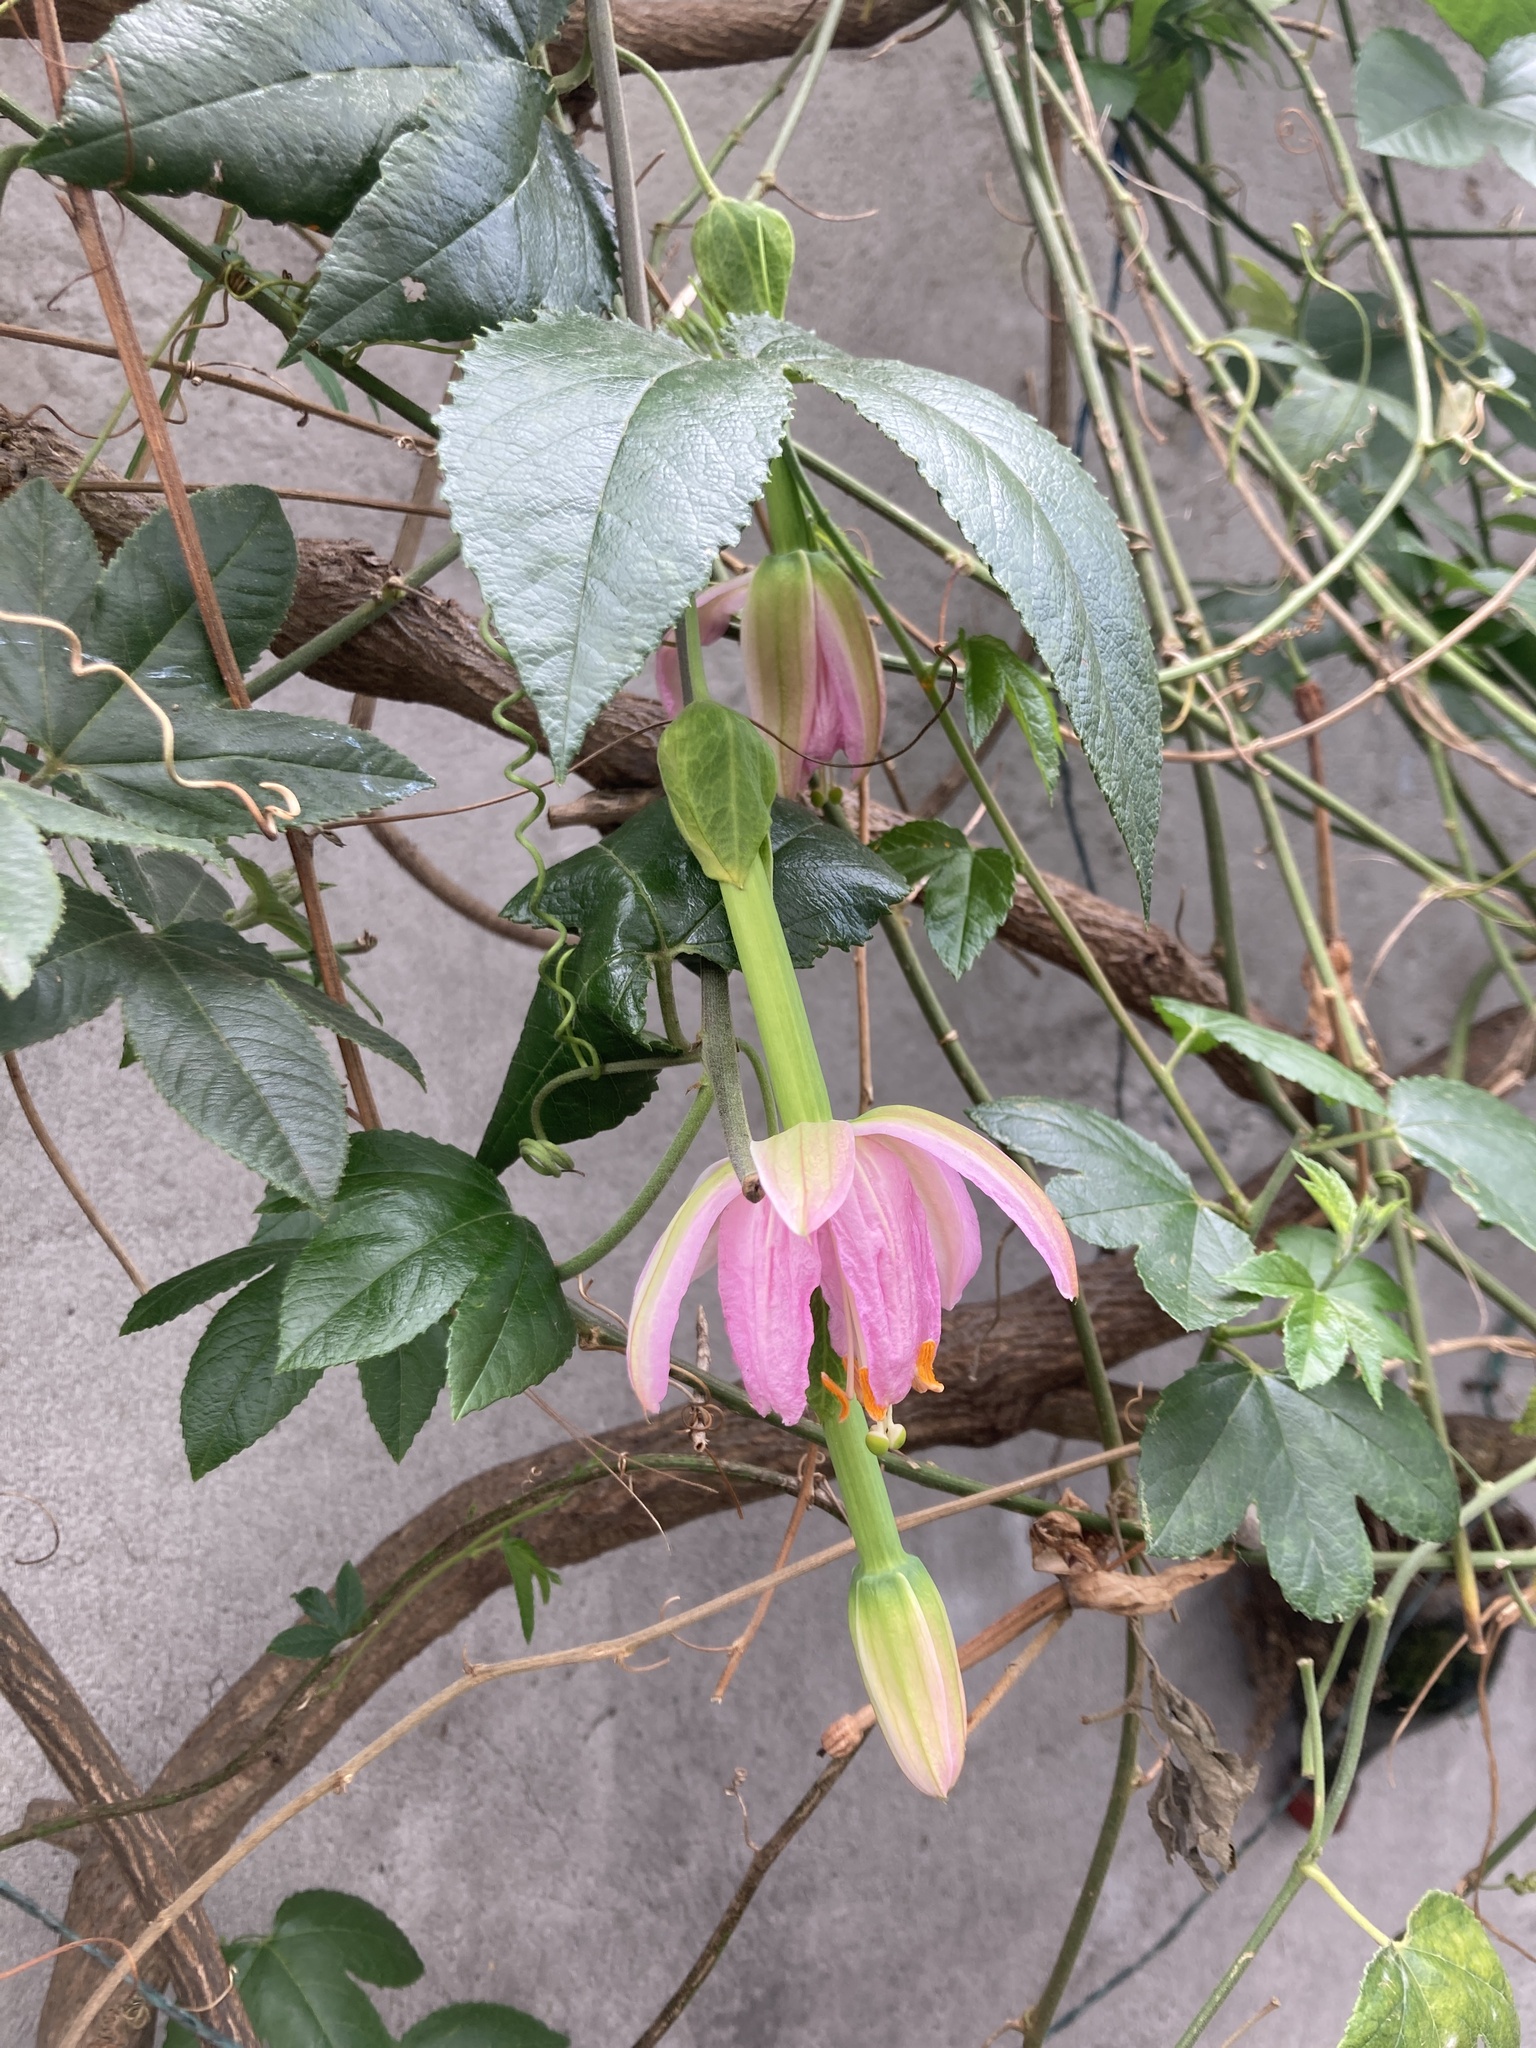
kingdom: Plantae
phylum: Tracheophyta
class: Magnoliopsida
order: Malpighiales
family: Passifloraceae
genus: Passiflora
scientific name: Passiflora tarminiana
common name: Banana poka
